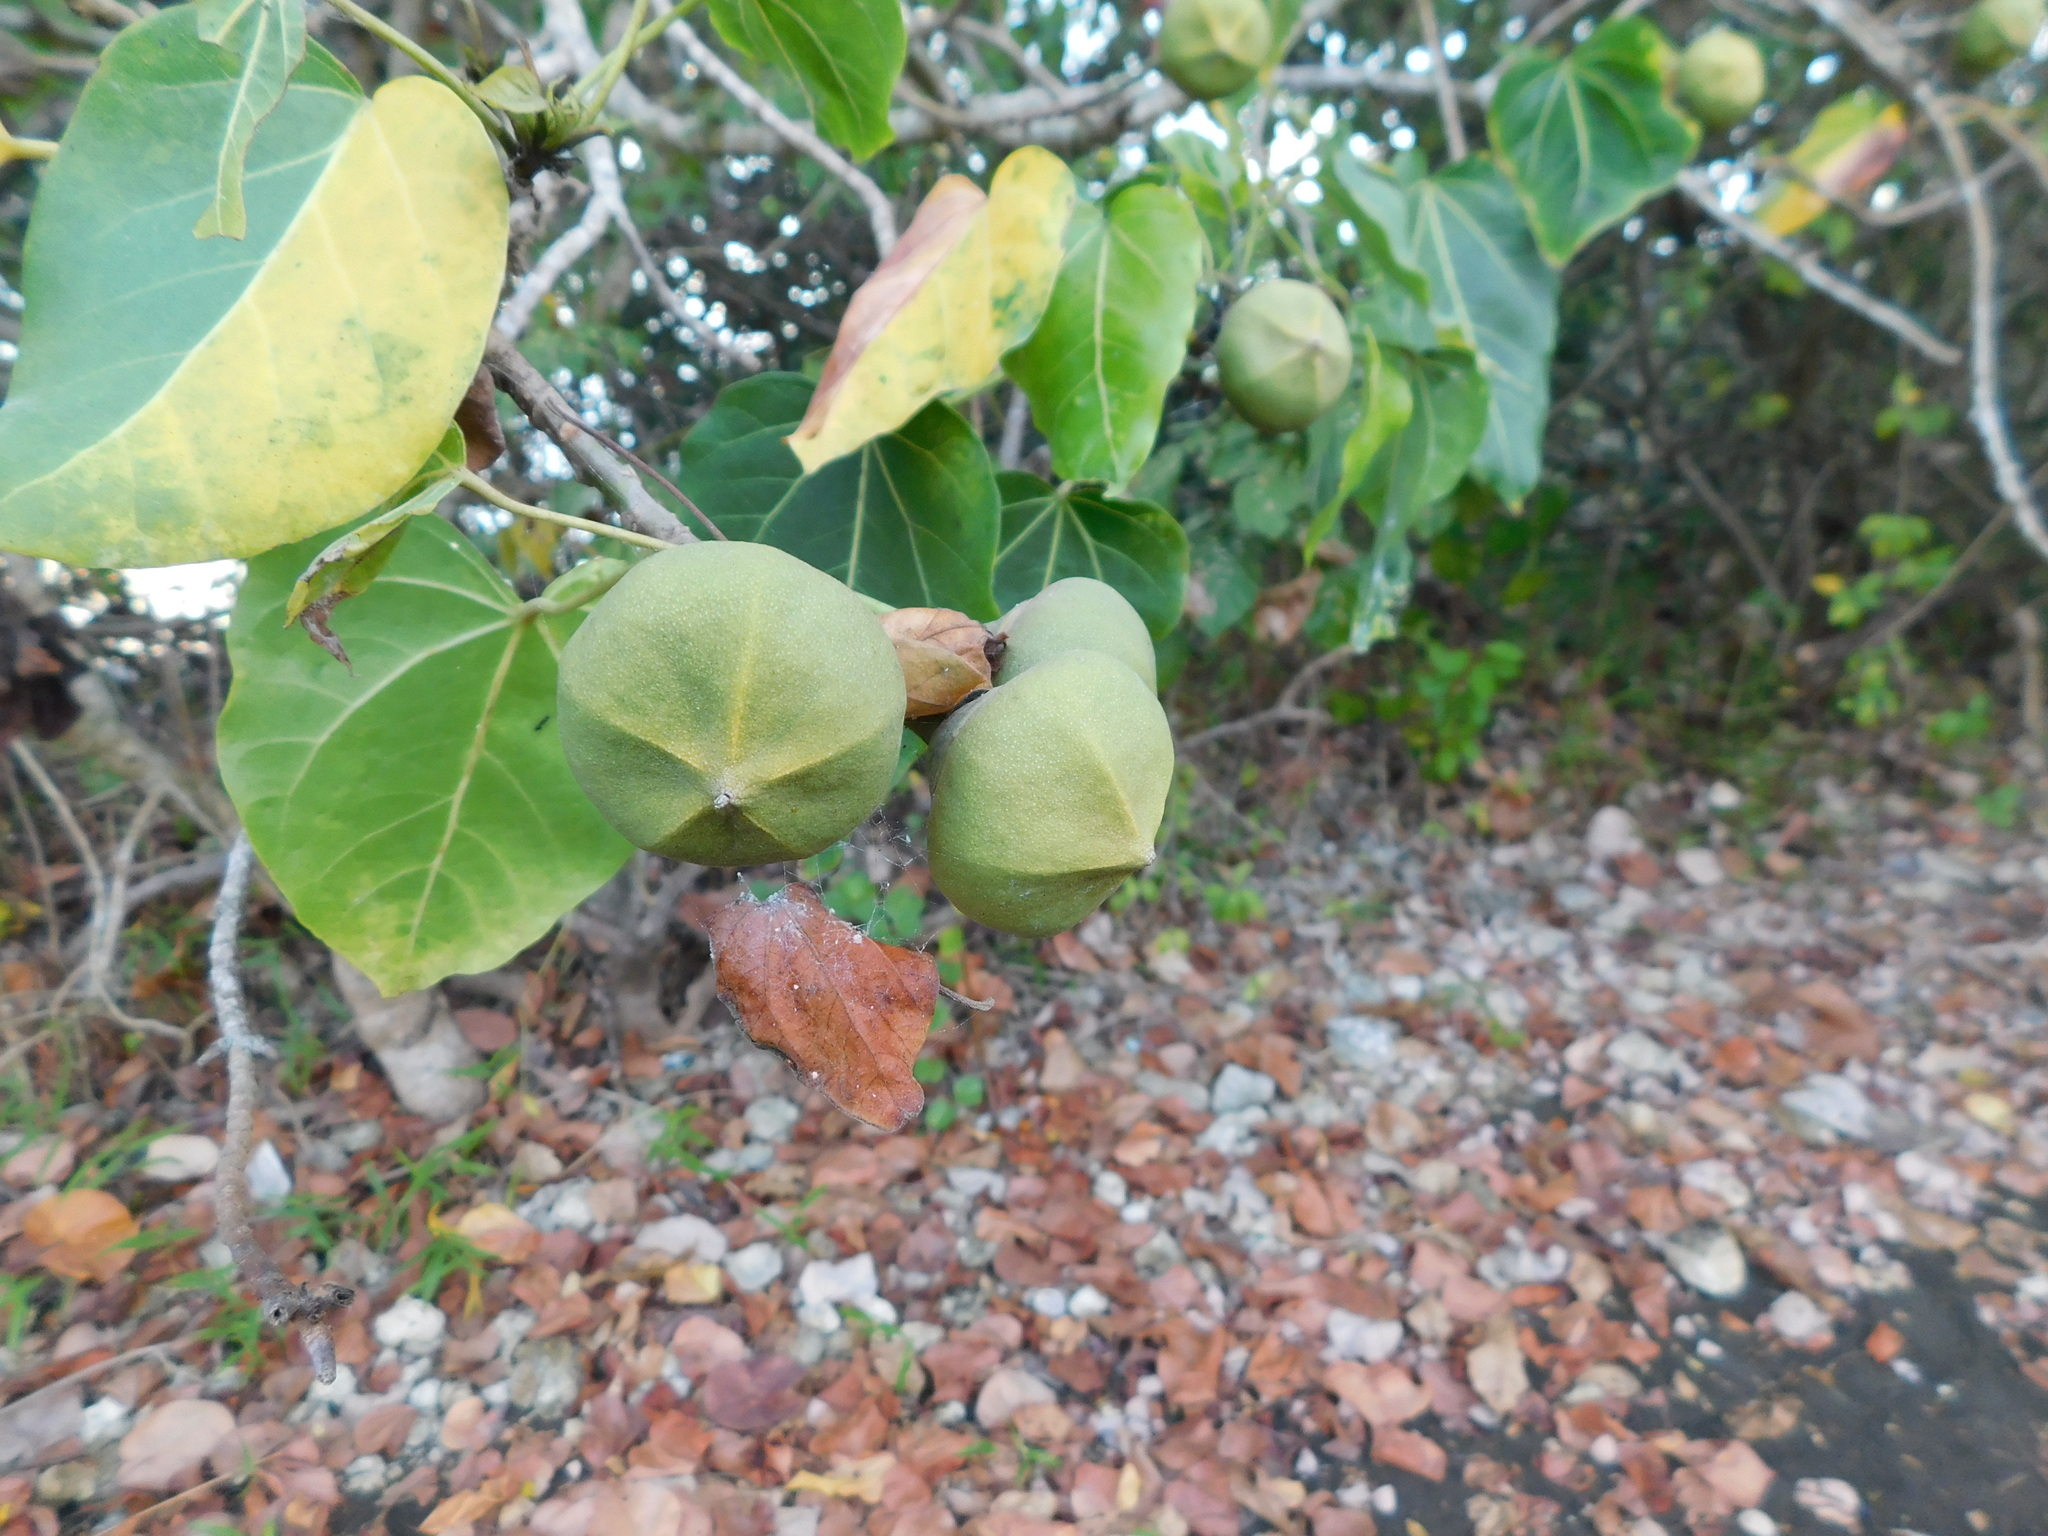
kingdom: Plantae
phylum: Tracheophyta
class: Magnoliopsida
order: Malvales
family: Malvaceae
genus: Thespesia
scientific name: Thespesia populnea
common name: Seaside mahoe
